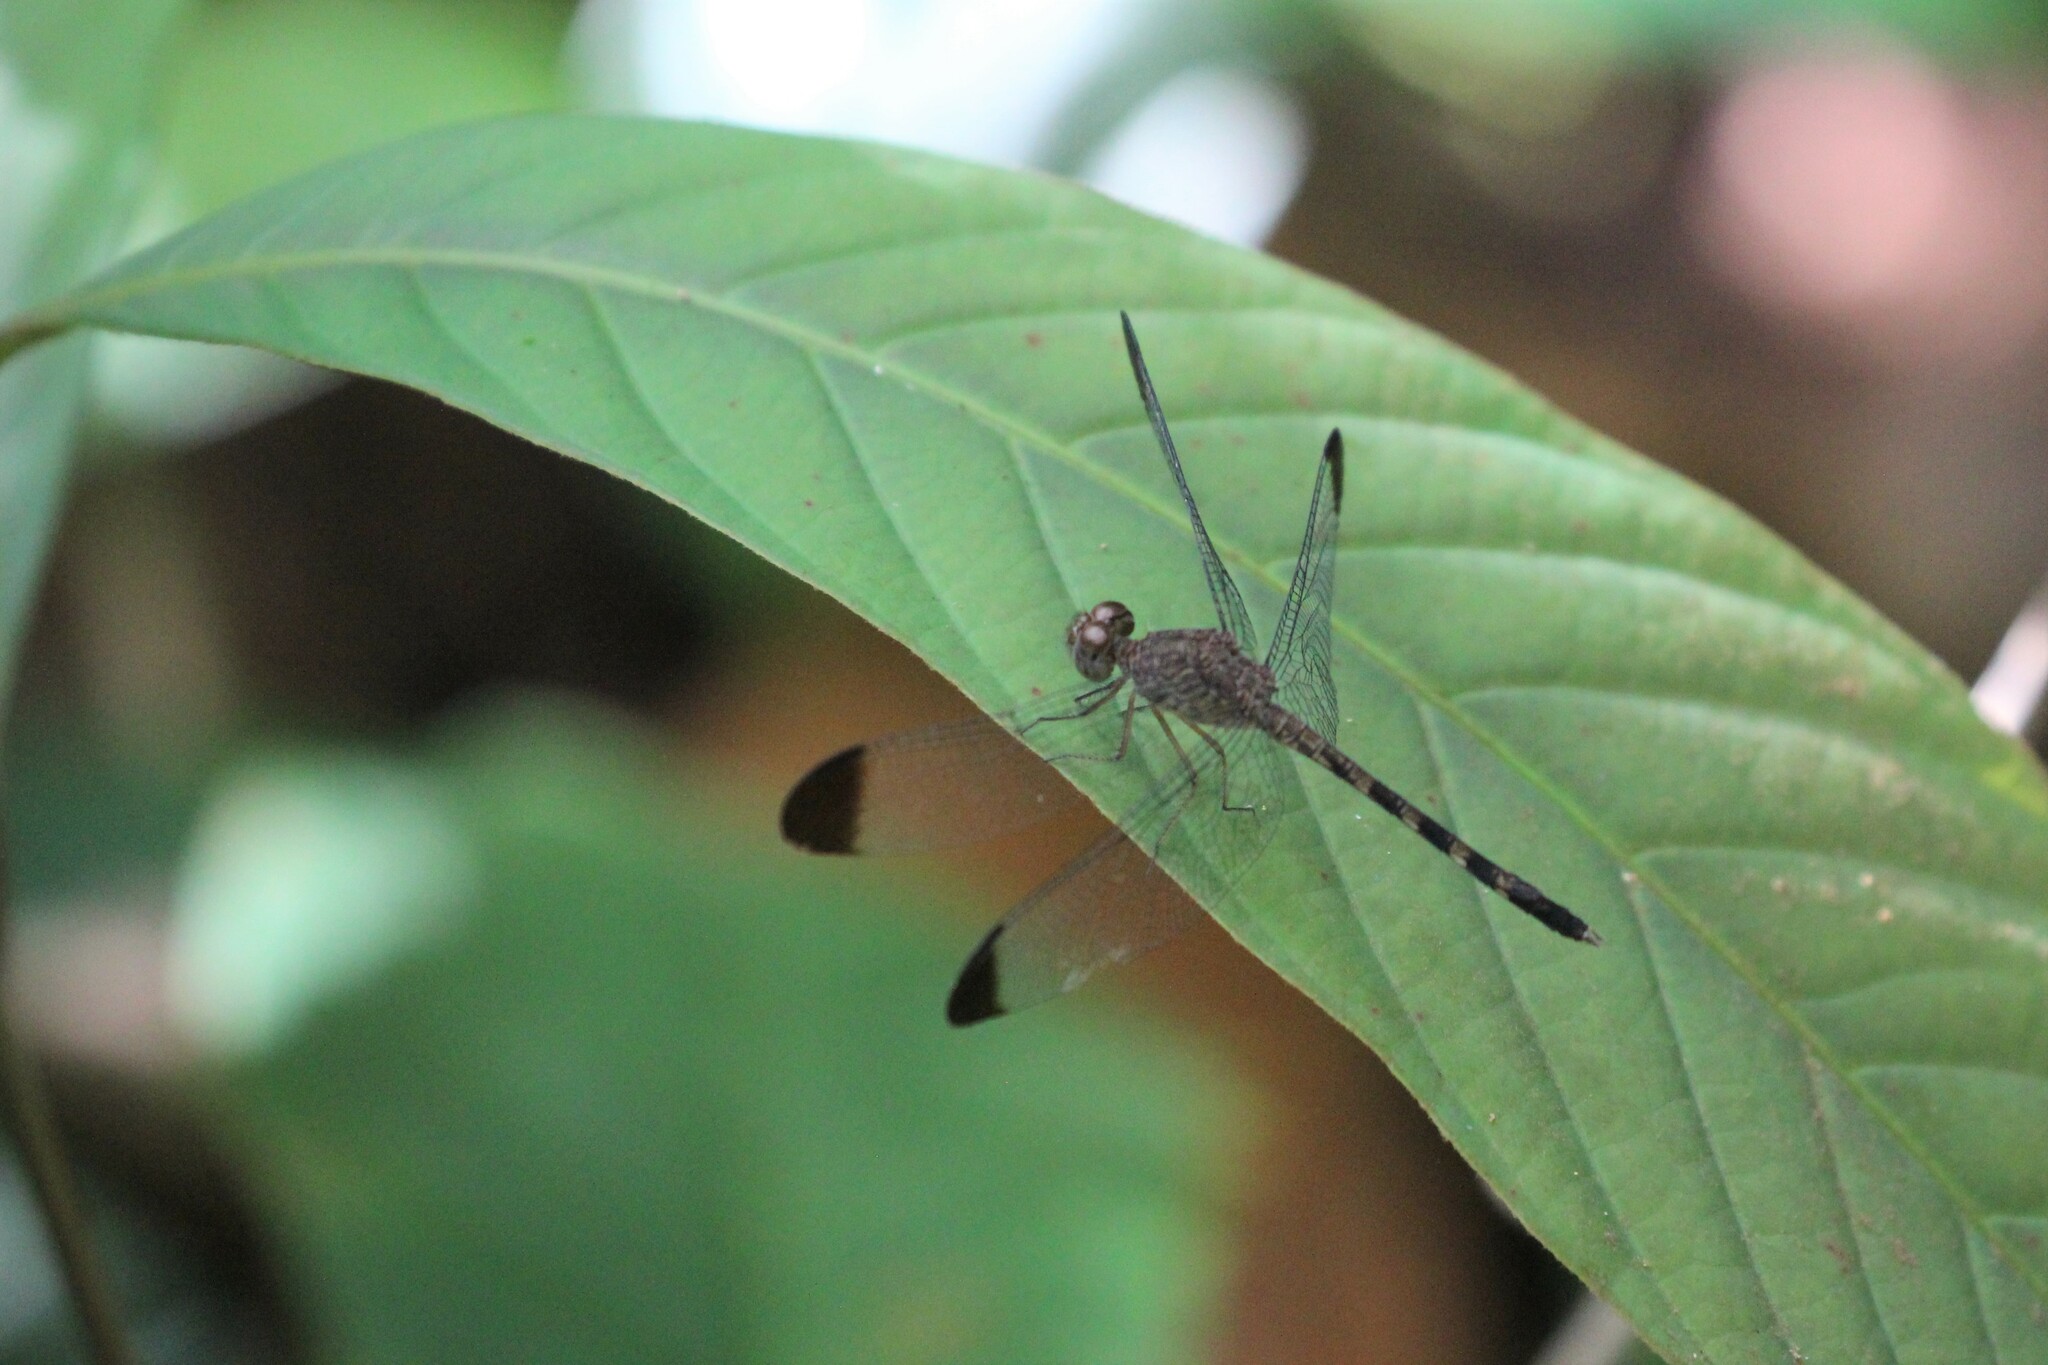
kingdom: Animalia
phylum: Arthropoda
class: Insecta
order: Odonata
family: Libellulidae
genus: Uracis
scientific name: Uracis imbuta
